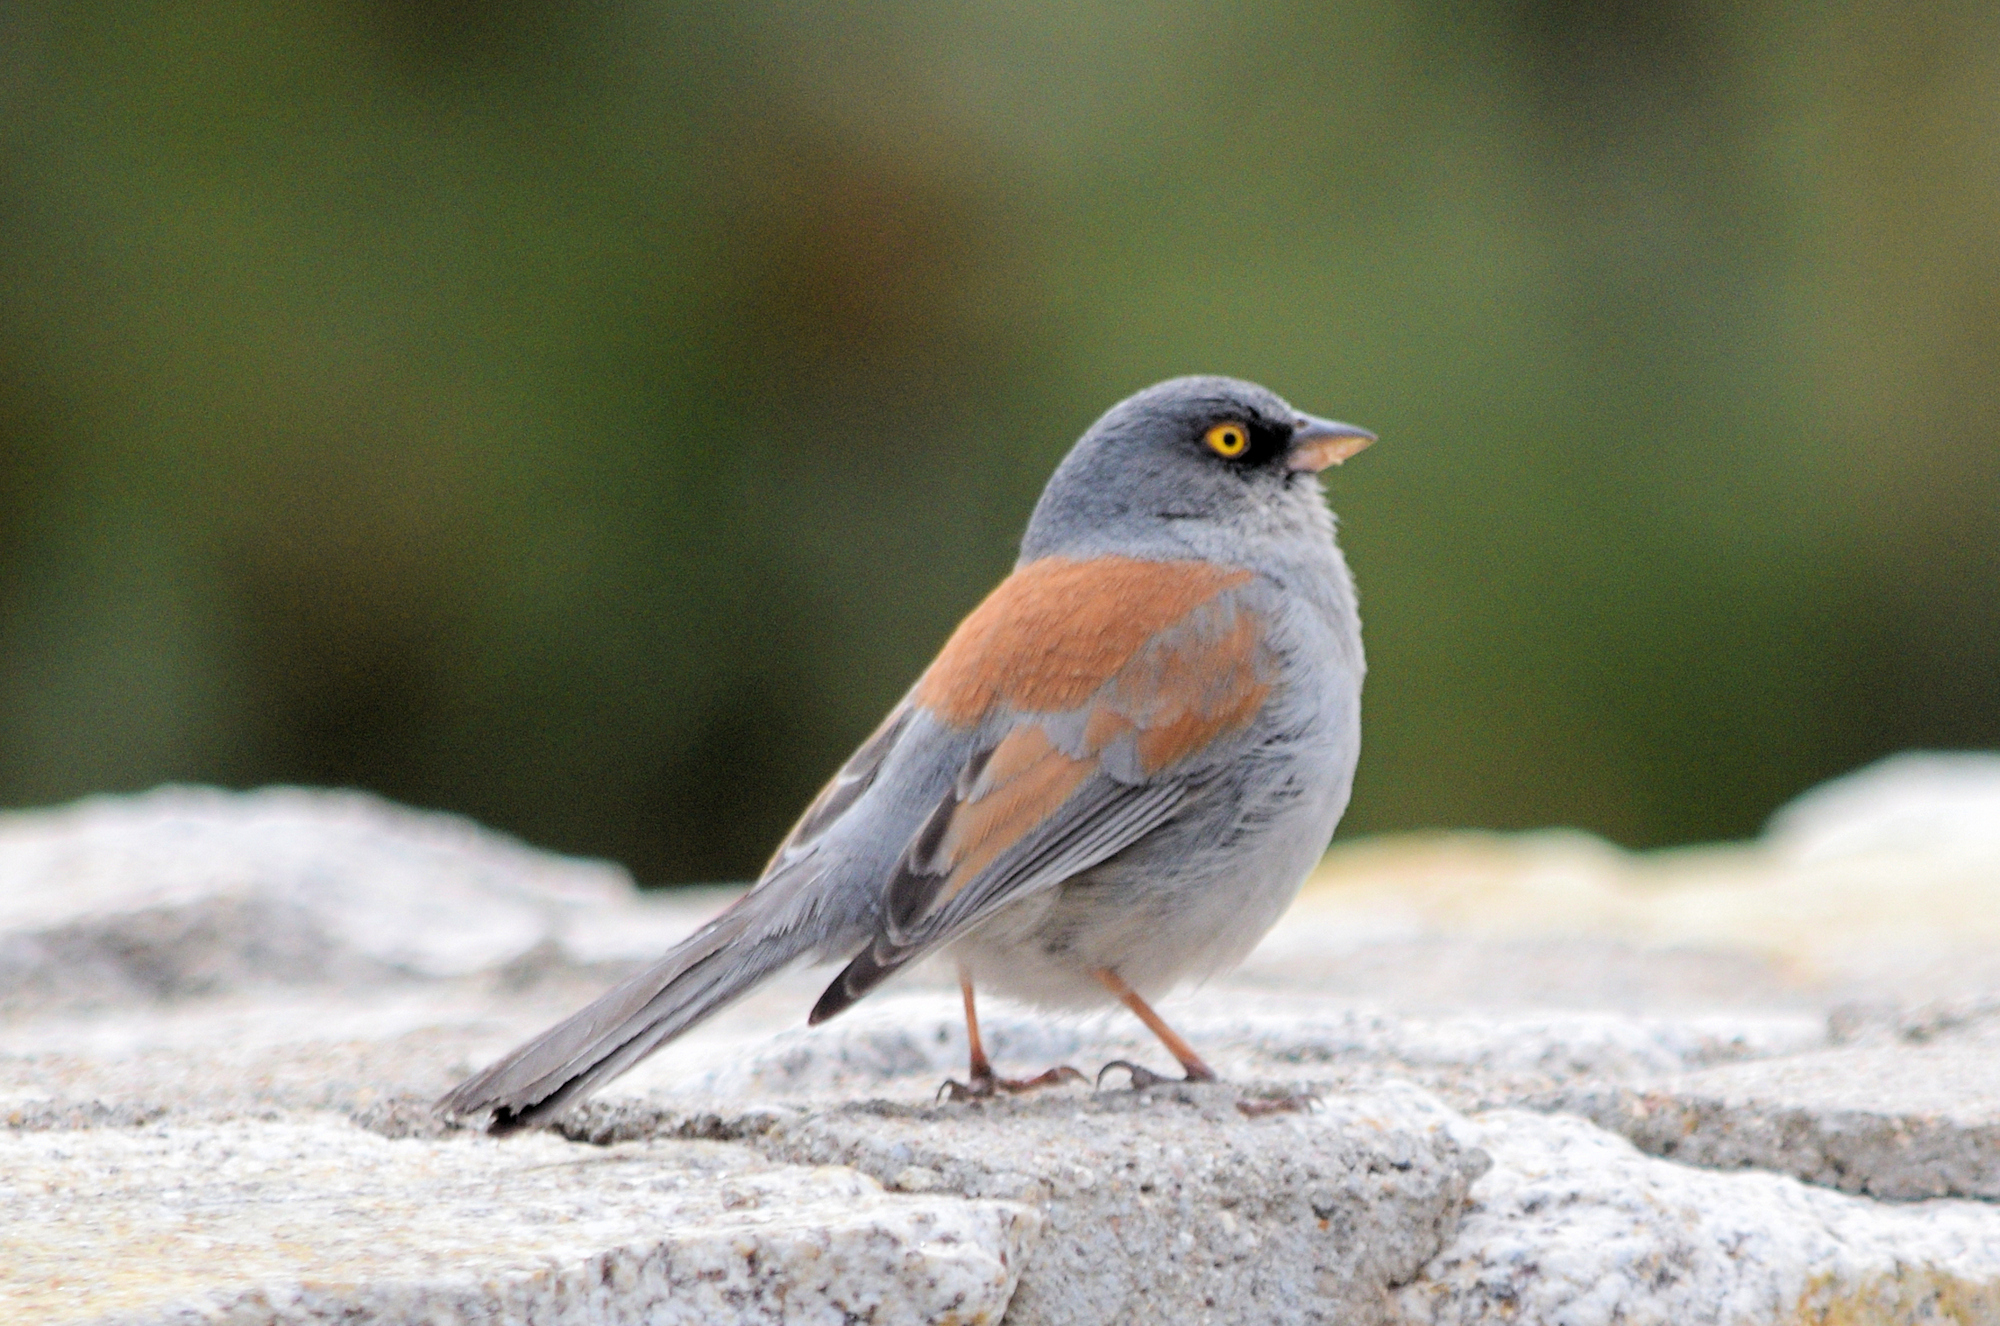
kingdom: Animalia
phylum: Chordata
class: Aves
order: Passeriformes
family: Passerellidae
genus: Junco
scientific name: Junco phaeonotus
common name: Yellow-eyed junco
